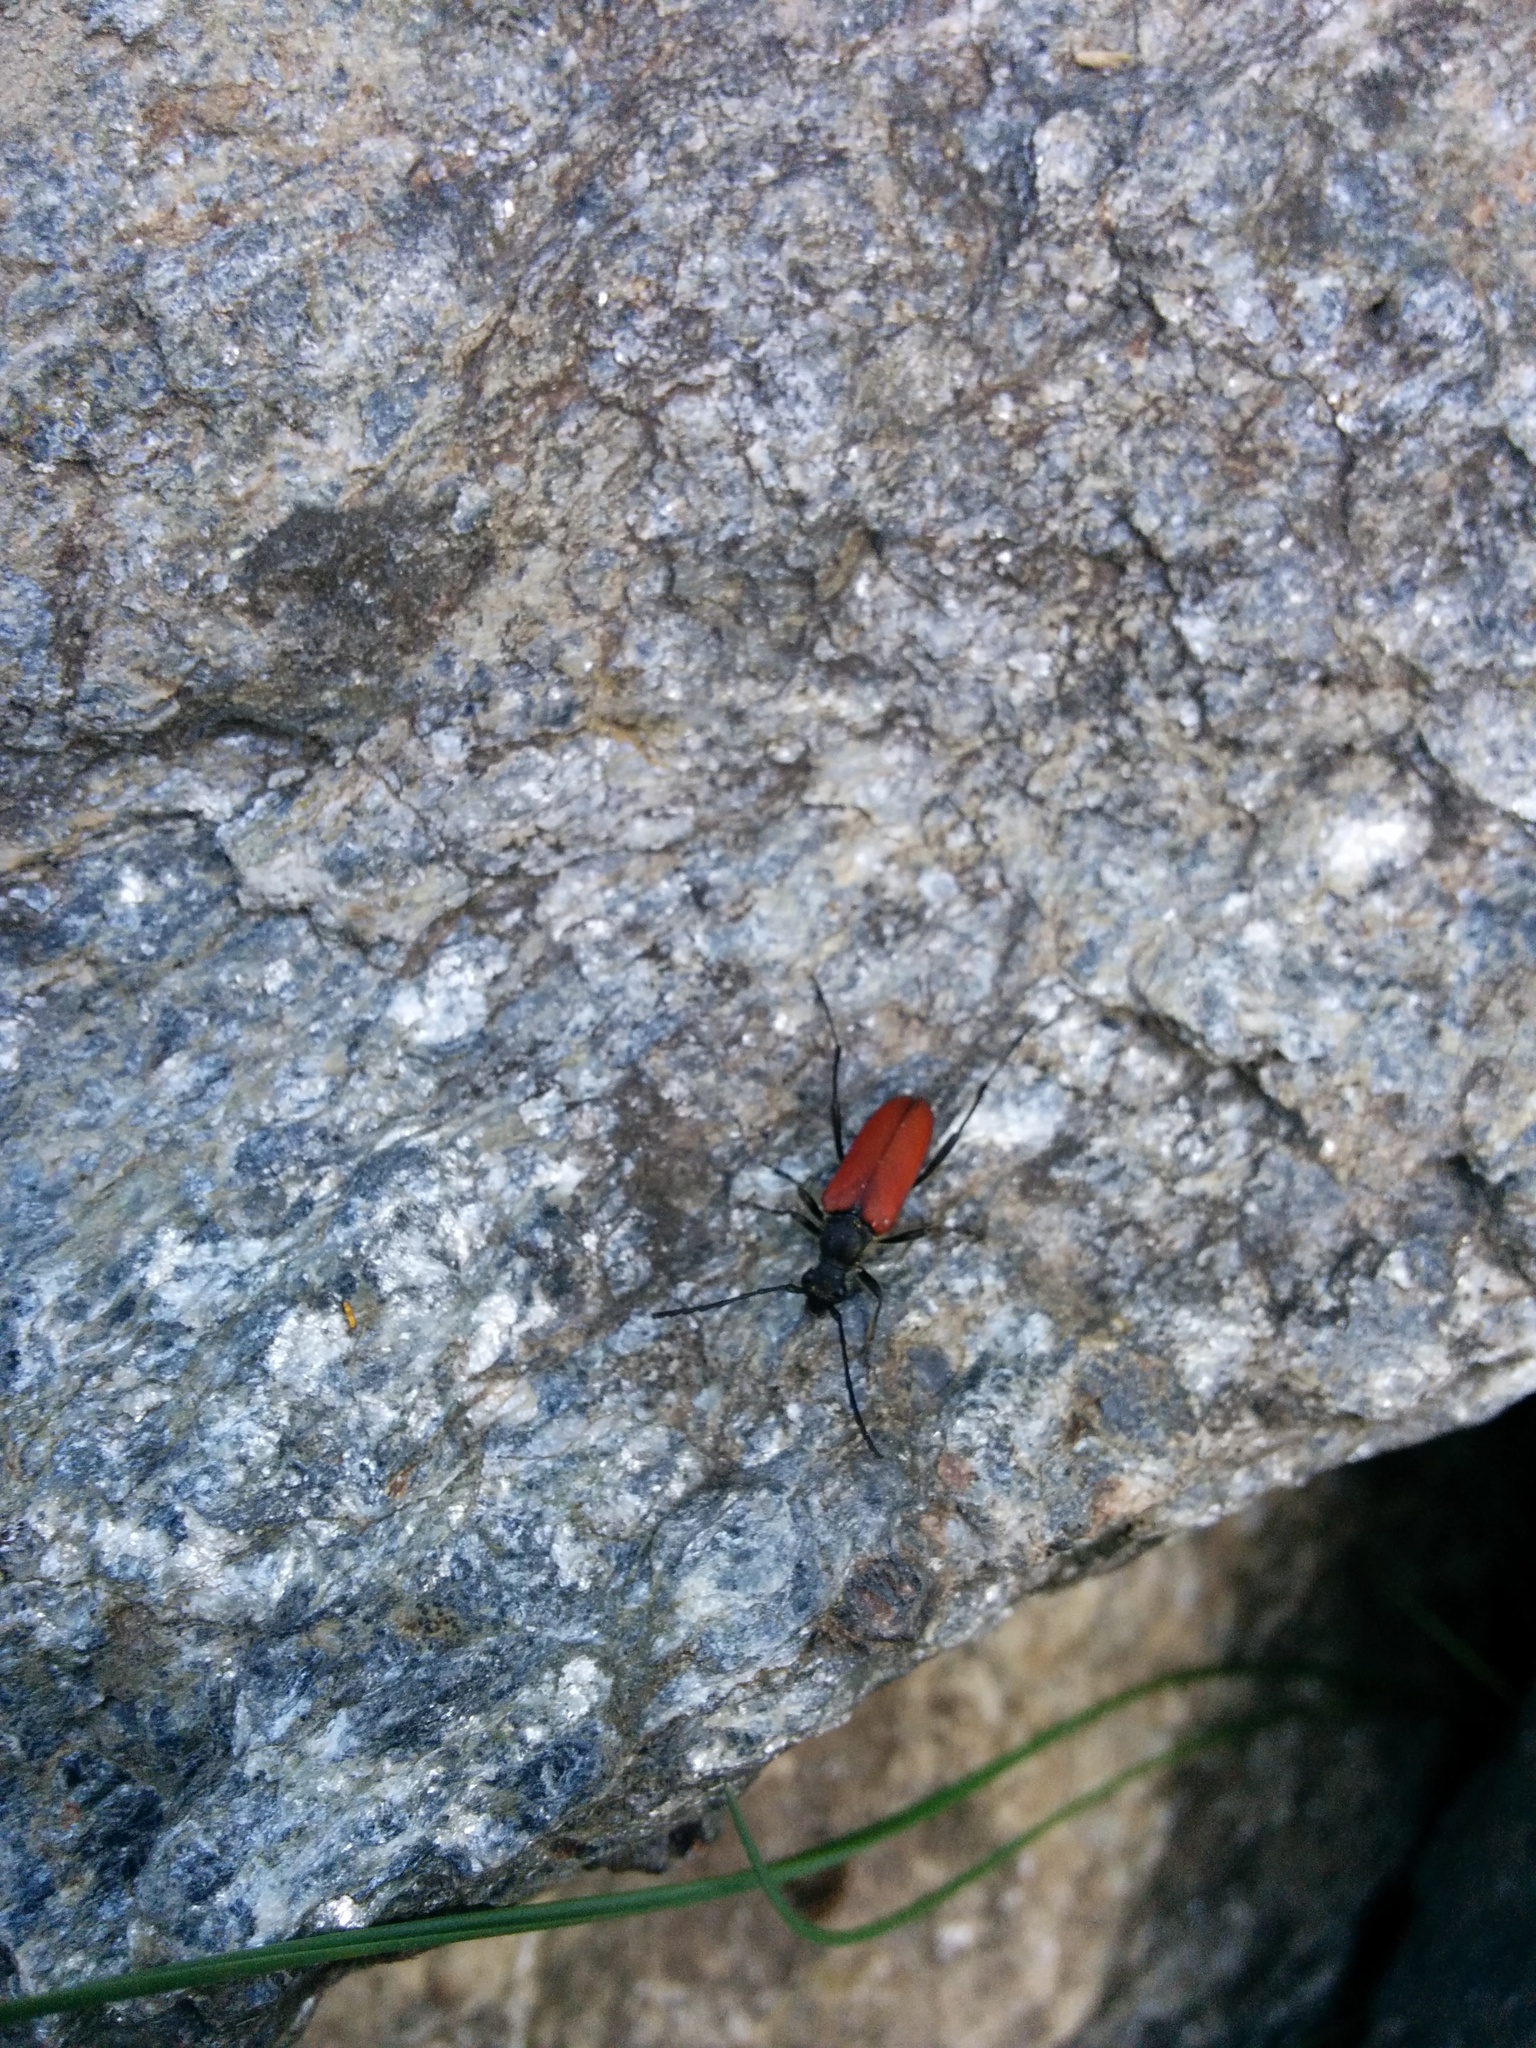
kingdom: Animalia
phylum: Arthropoda
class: Insecta
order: Coleoptera
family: Cerambycidae
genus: Anastrangalia
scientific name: Anastrangalia sanguinolenta
